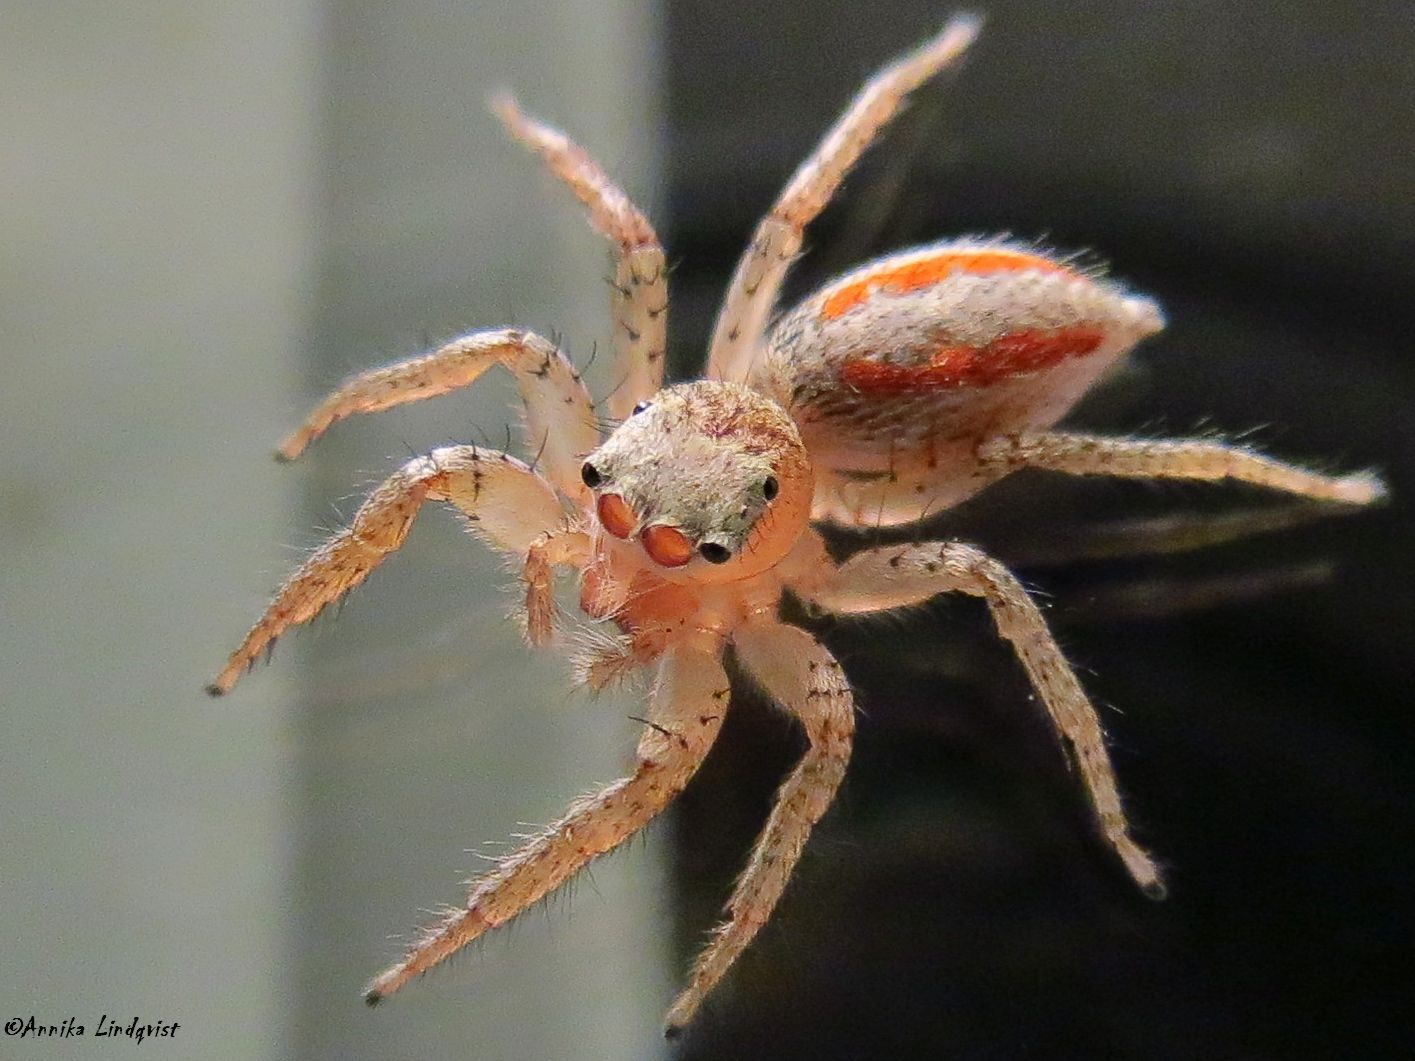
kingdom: Animalia
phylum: Arthropoda
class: Arachnida
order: Araneae
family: Salticidae
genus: Maevia
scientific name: Maevia inclemens
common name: Dimorphic jumper
